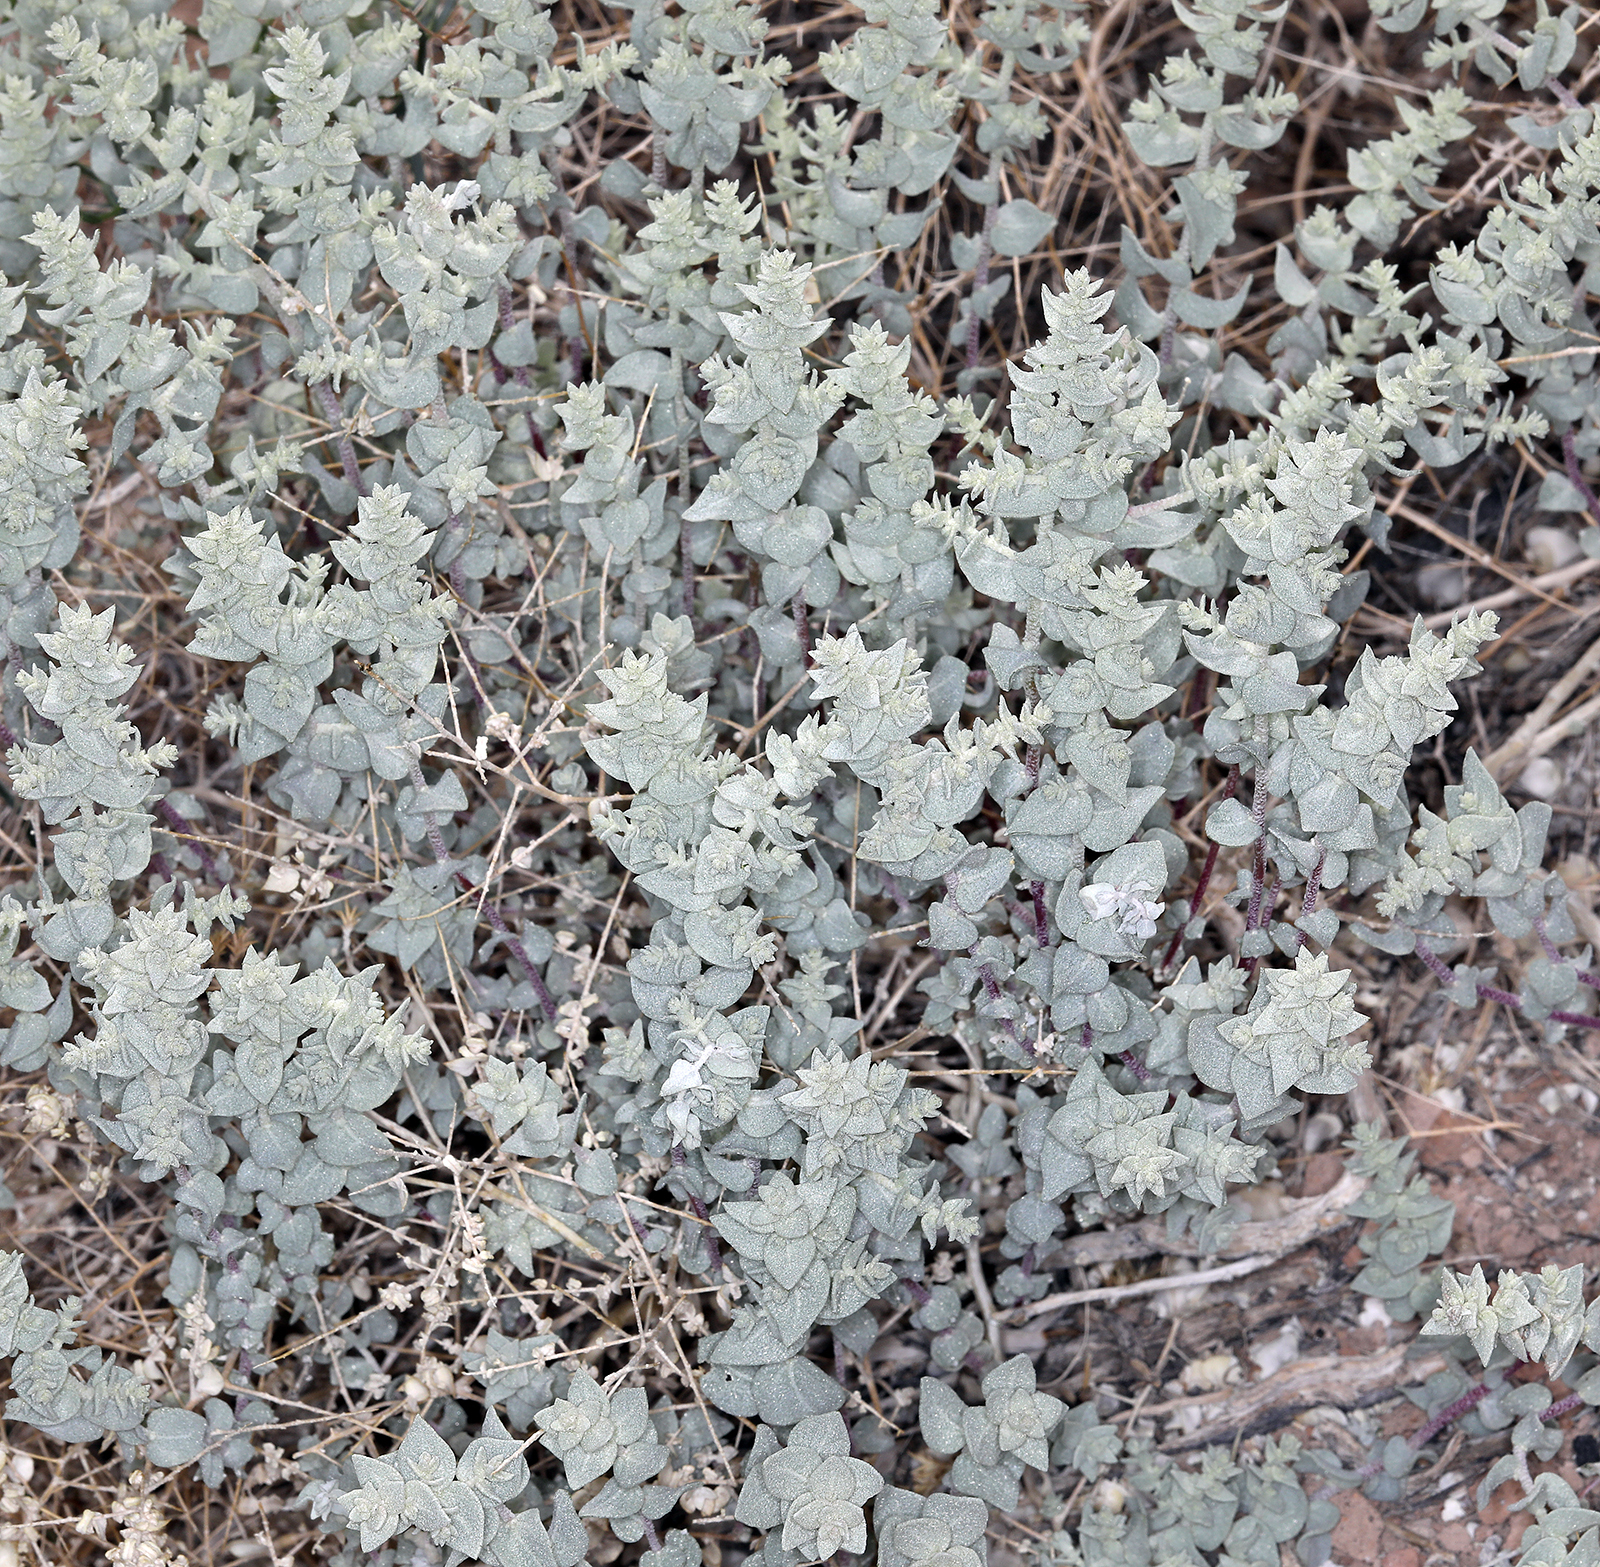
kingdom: Plantae
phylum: Tracheophyta
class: Magnoliopsida
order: Caryophyllales
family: Amaranthaceae
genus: Atriplex
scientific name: Atriplex parryi
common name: Parry's saltbush
